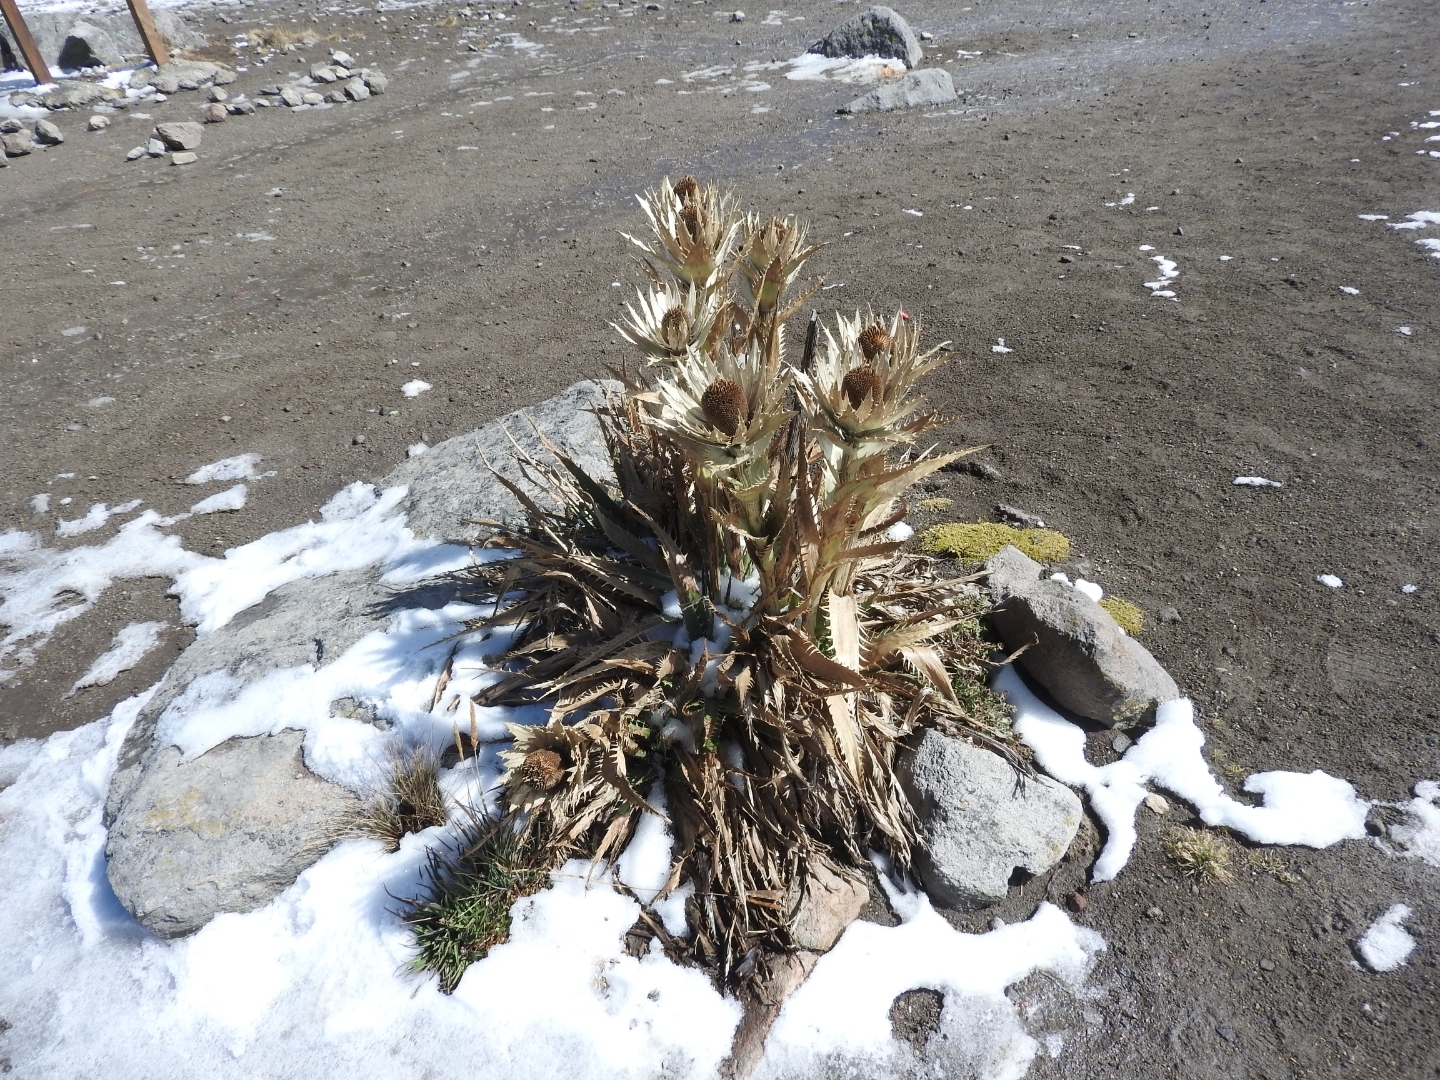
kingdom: Plantae
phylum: Tracheophyta
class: Magnoliopsida
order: Apiales
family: Apiaceae
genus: Eryngium
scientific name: Eryngium proteiflorum
